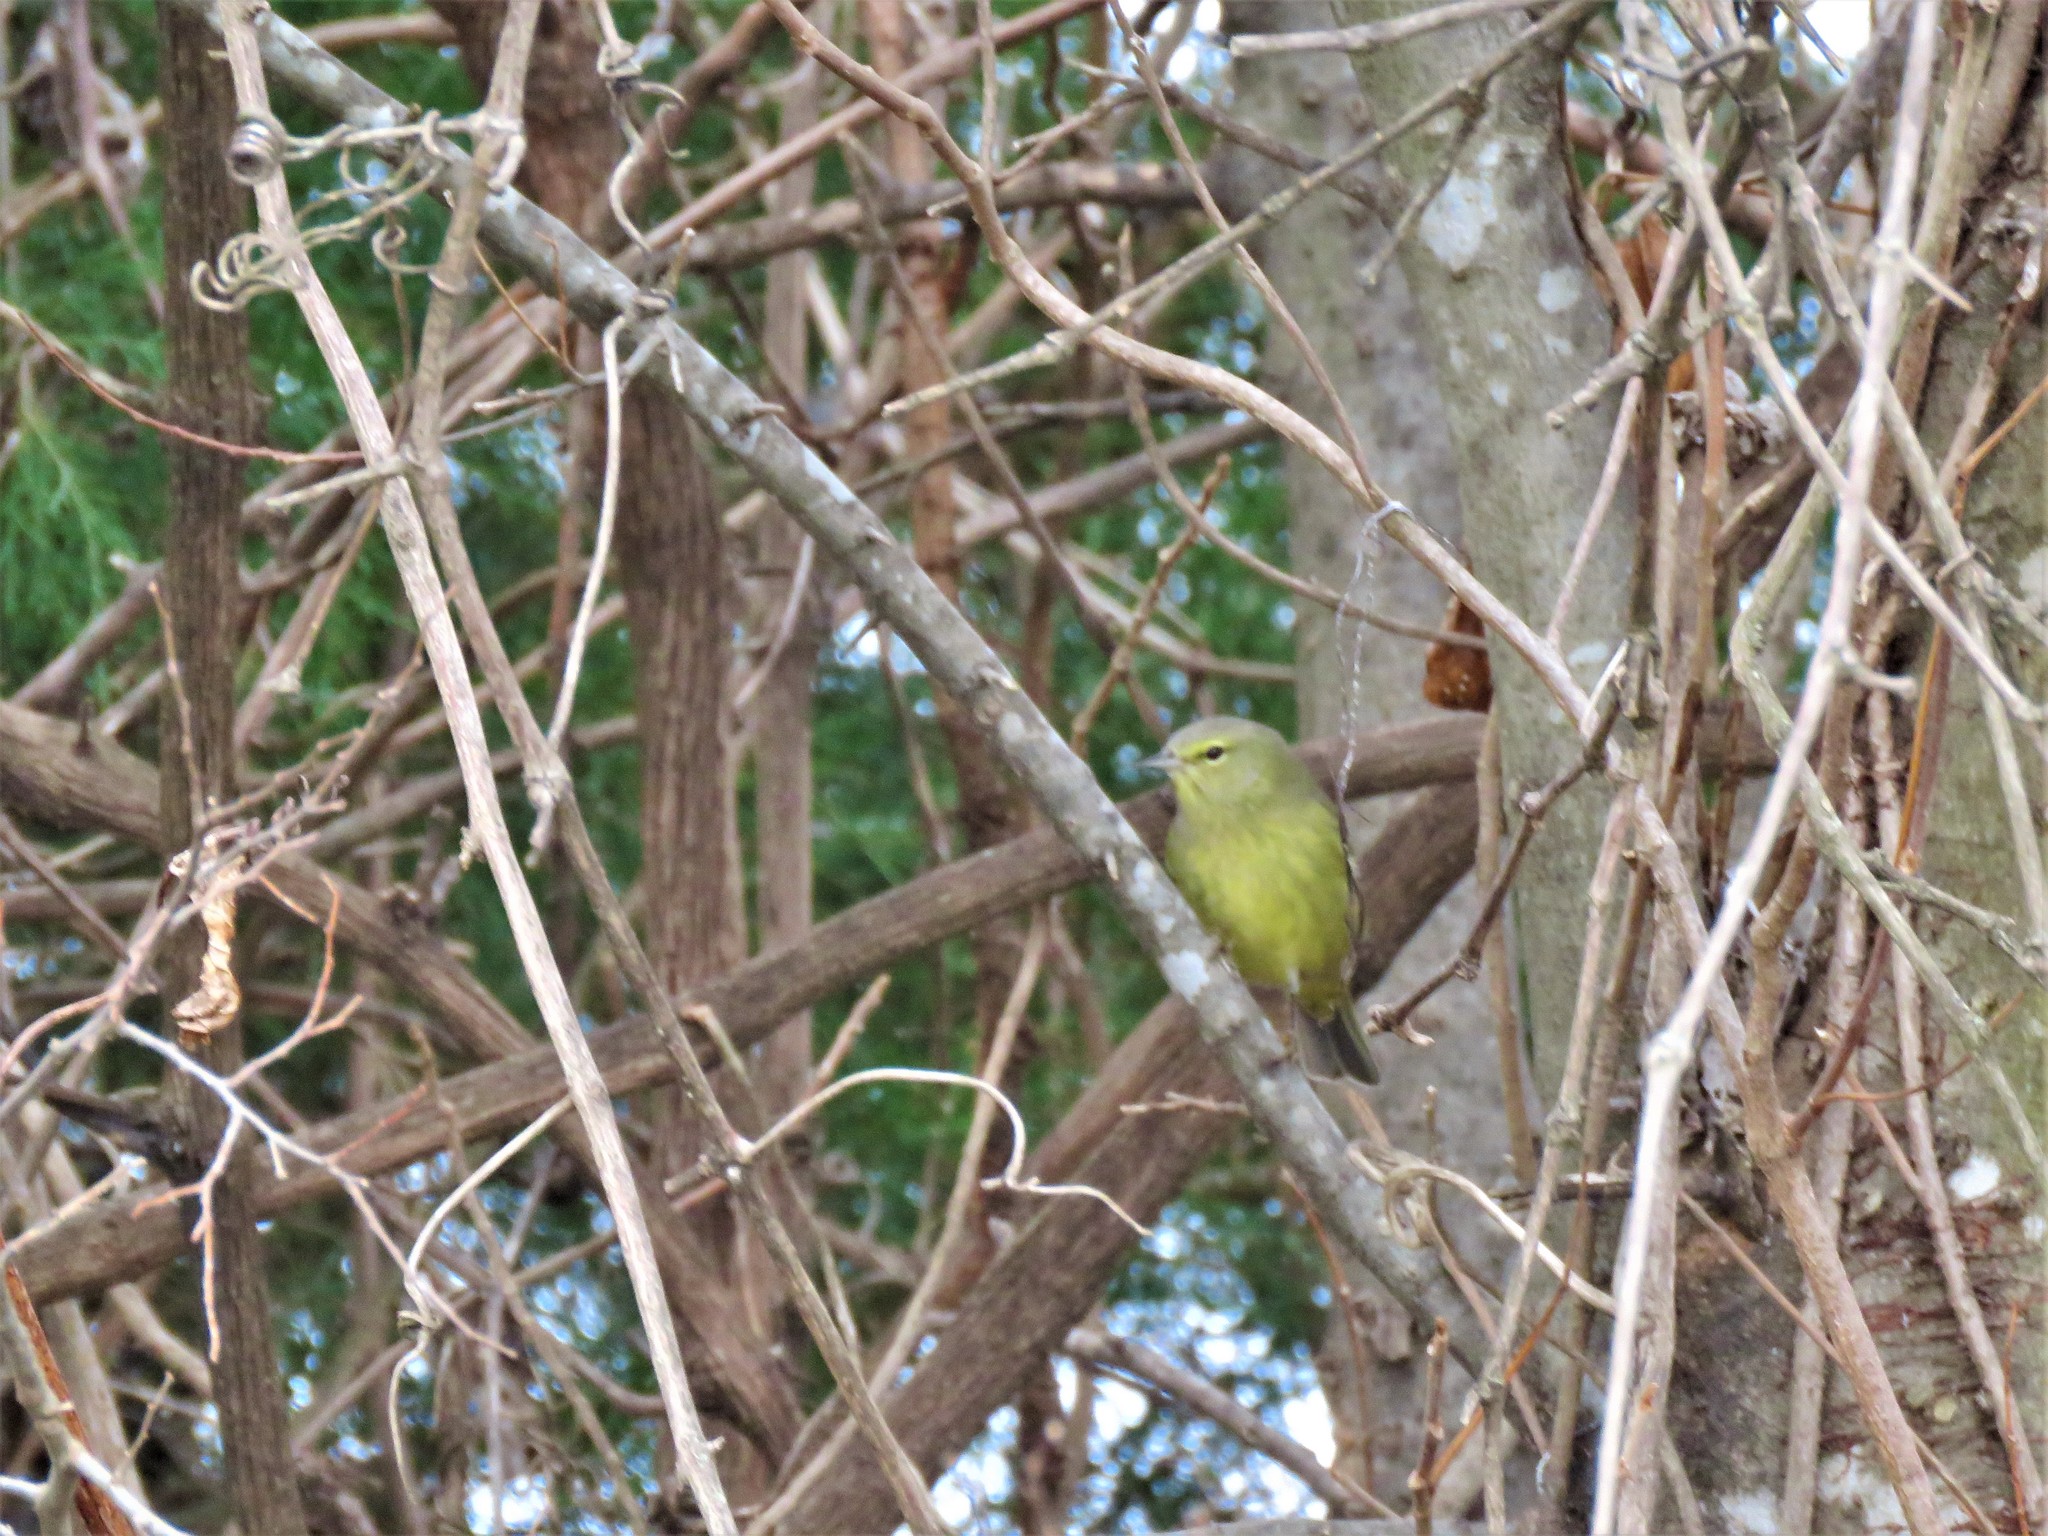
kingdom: Animalia
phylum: Chordata
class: Aves
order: Passeriformes
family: Parulidae
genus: Leiothlypis
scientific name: Leiothlypis celata
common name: Orange-crowned warbler
